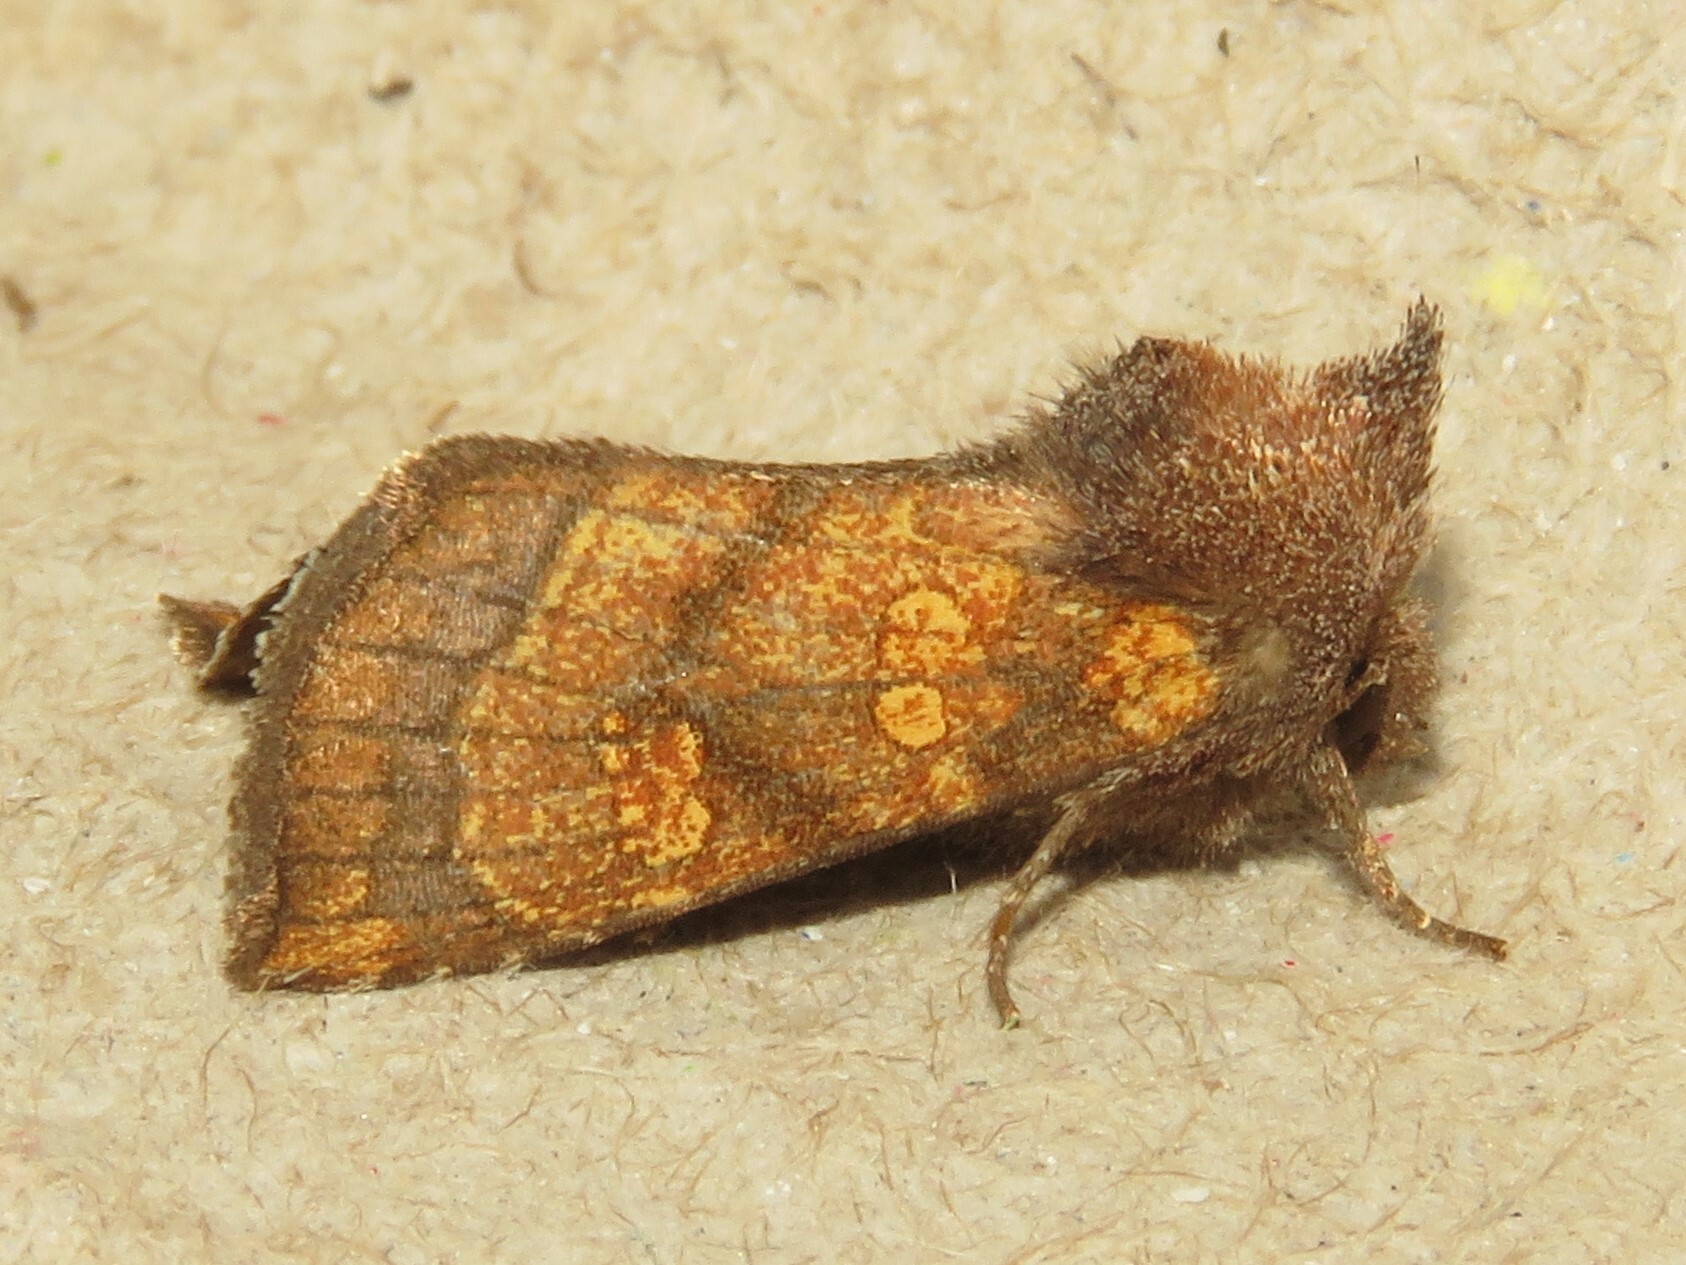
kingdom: Animalia
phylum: Arthropoda
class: Insecta
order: Lepidoptera
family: Noctuidae
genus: Papaipema
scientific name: Papaipema impecuniosa
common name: Aster borer moth
